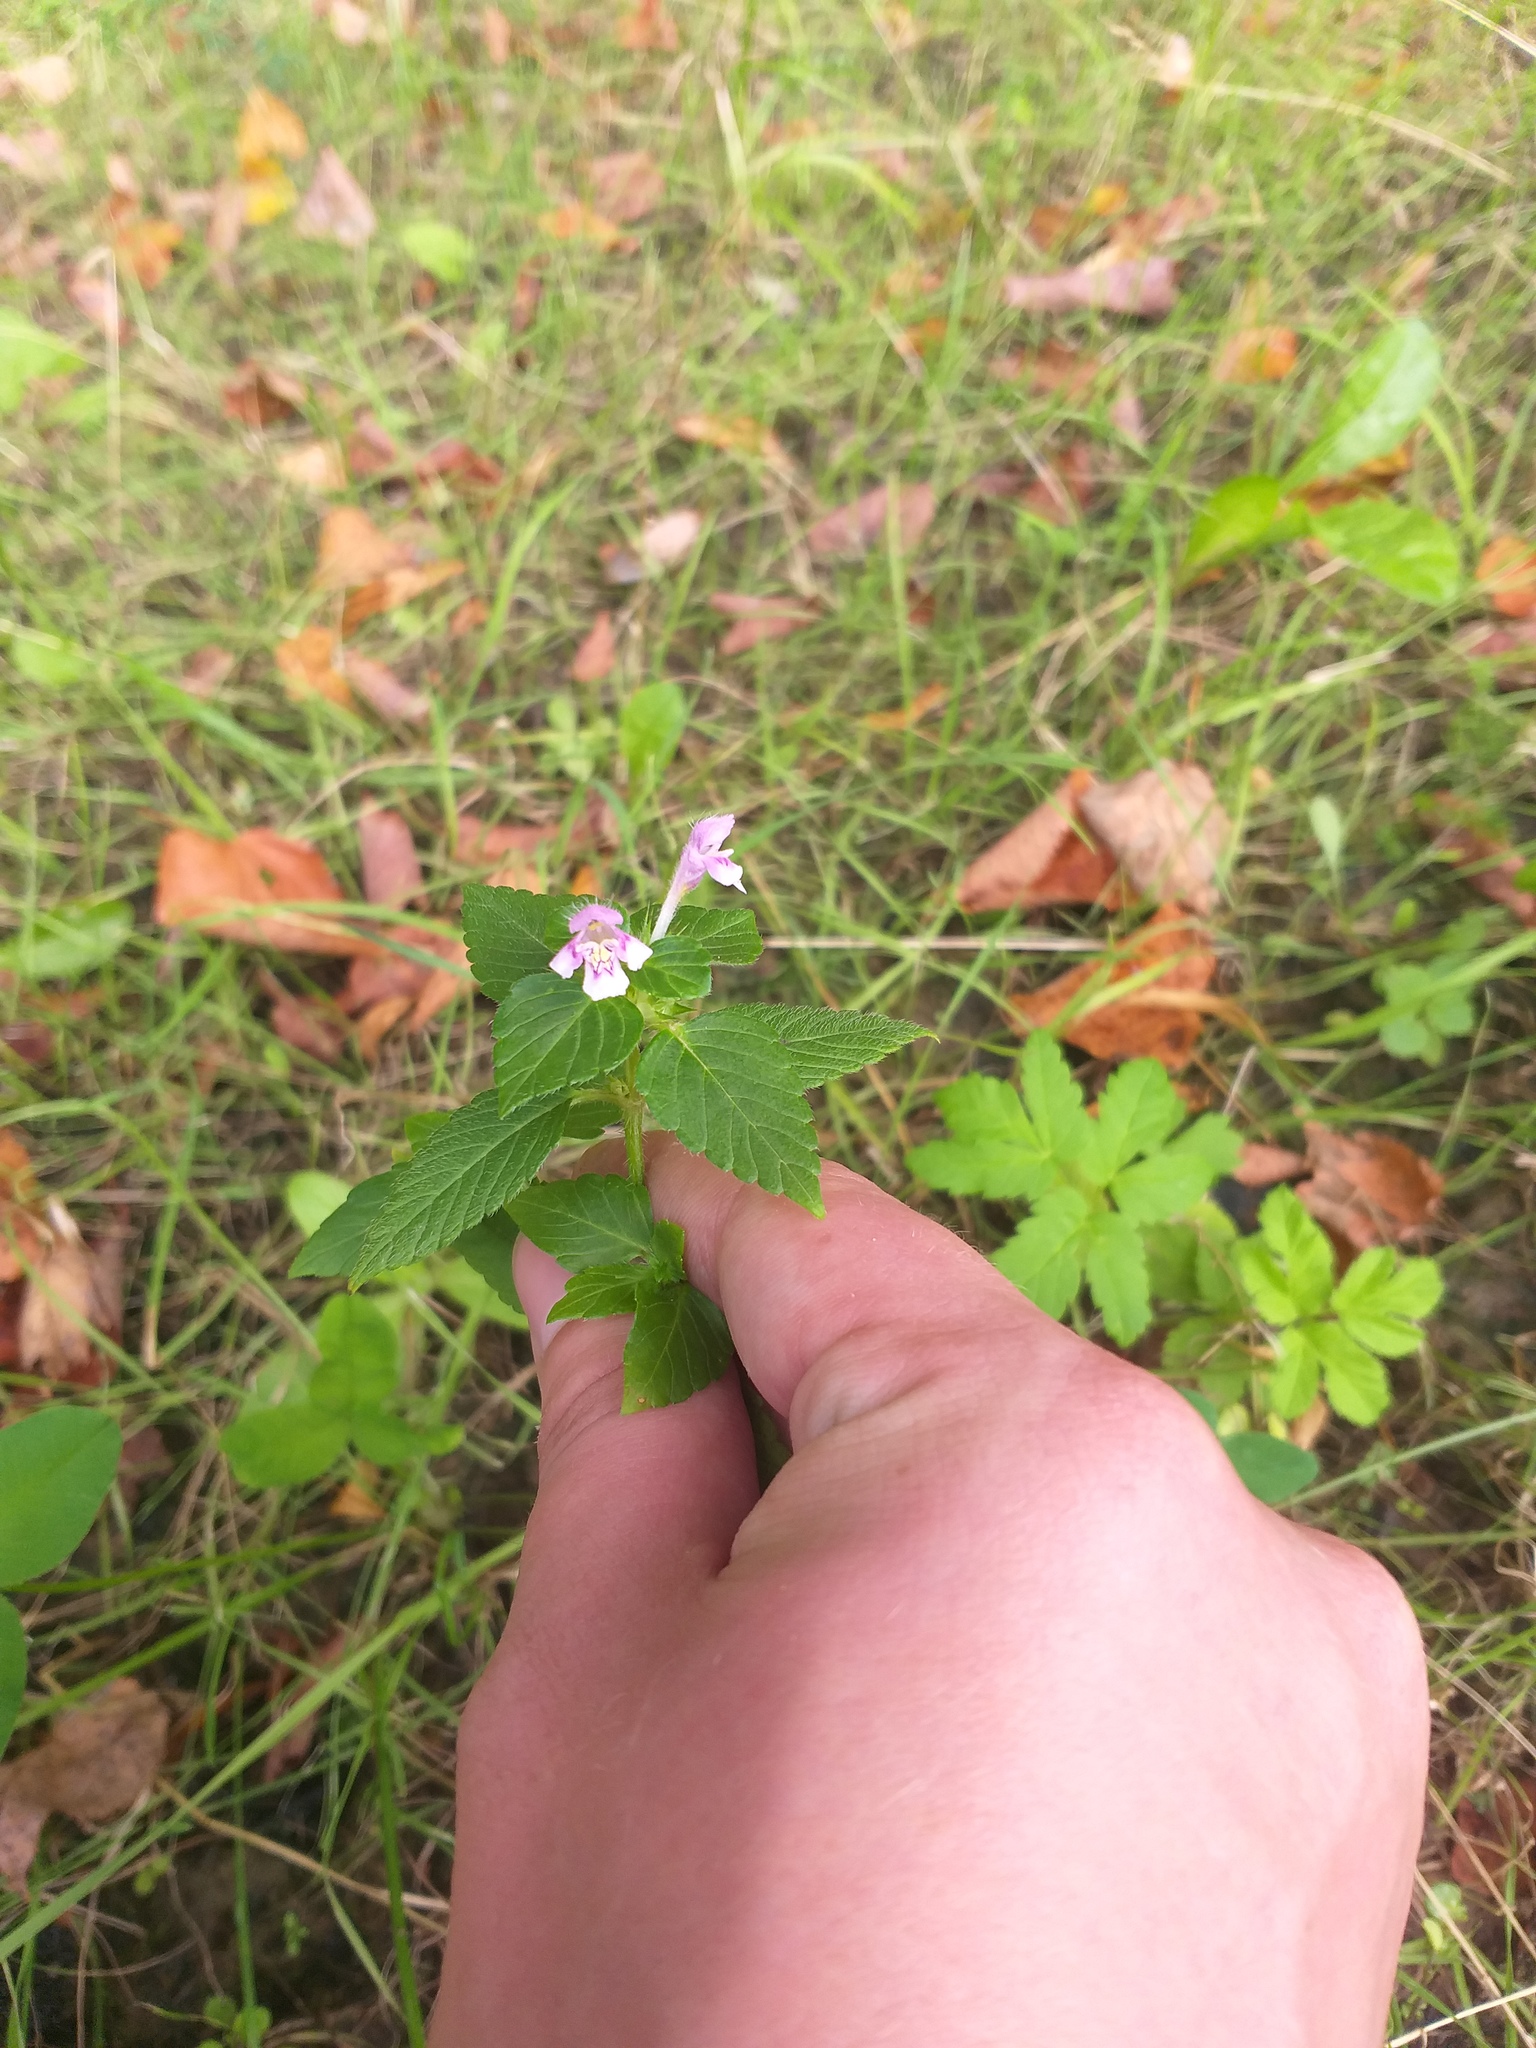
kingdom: Plantae
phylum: Tracheophyta
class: Magnoliopsida
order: Lamiales
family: Lamiaceae
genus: Galeopsis
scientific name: Galeopsis tetrahit
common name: Common hemp-nettle
